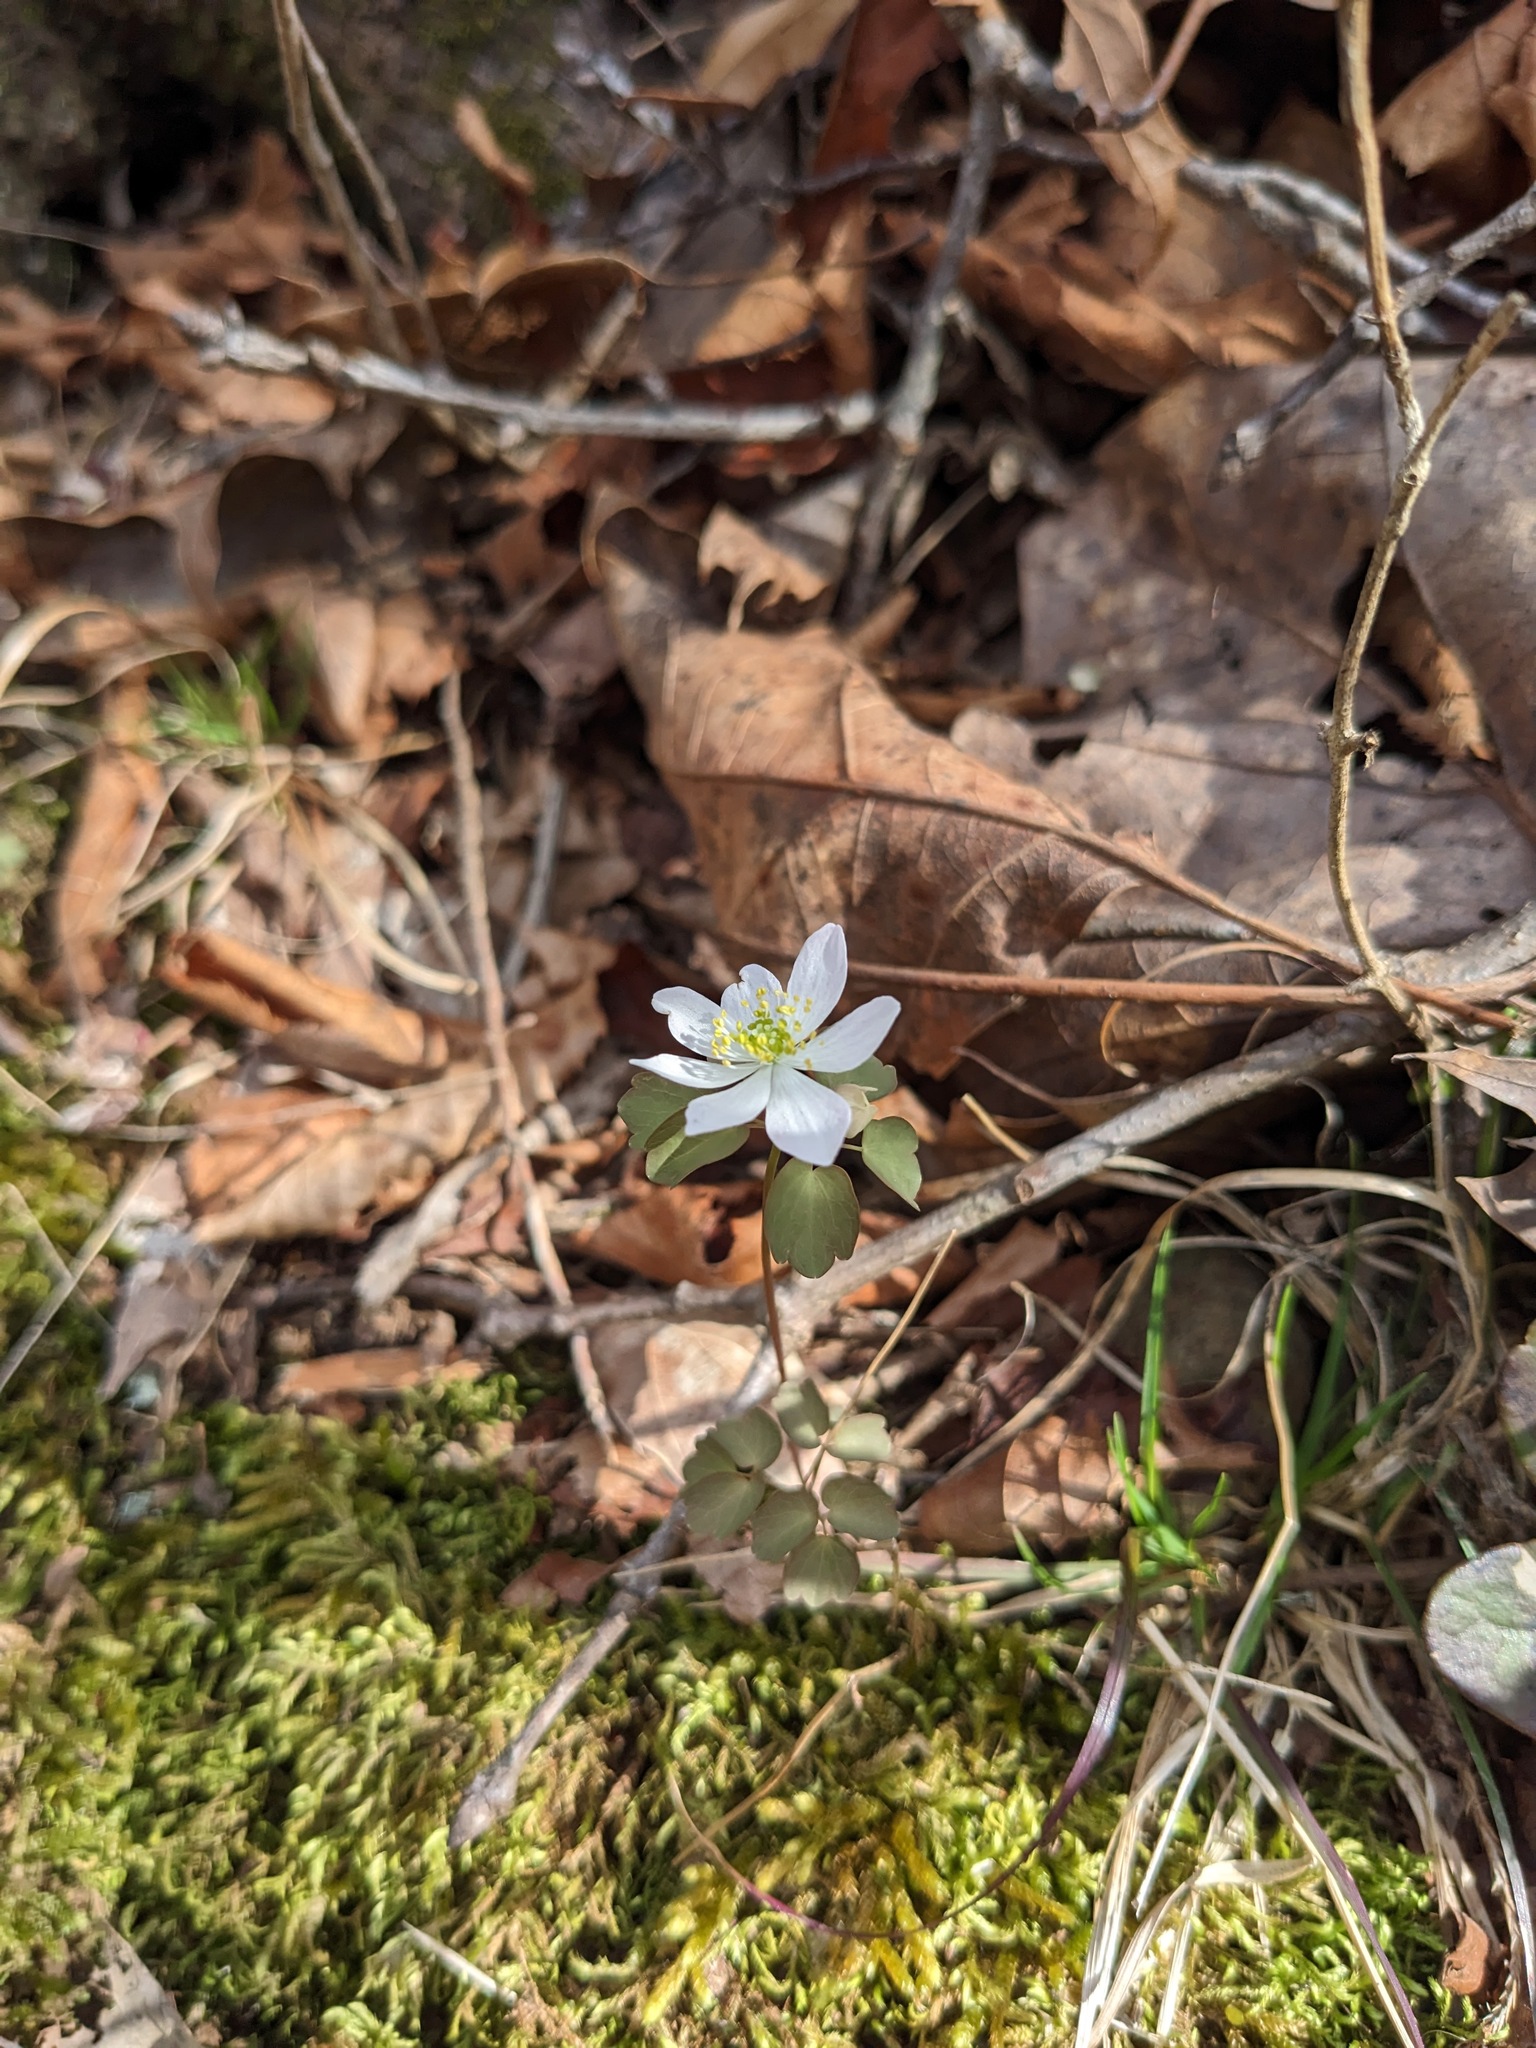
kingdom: Plantae
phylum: Tracheophyta
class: Magnoliopsida
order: Ranunculales
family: Ranunculaceae
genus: Thalictrum
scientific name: Thalictrum thalictroides
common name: Rue-anemone
